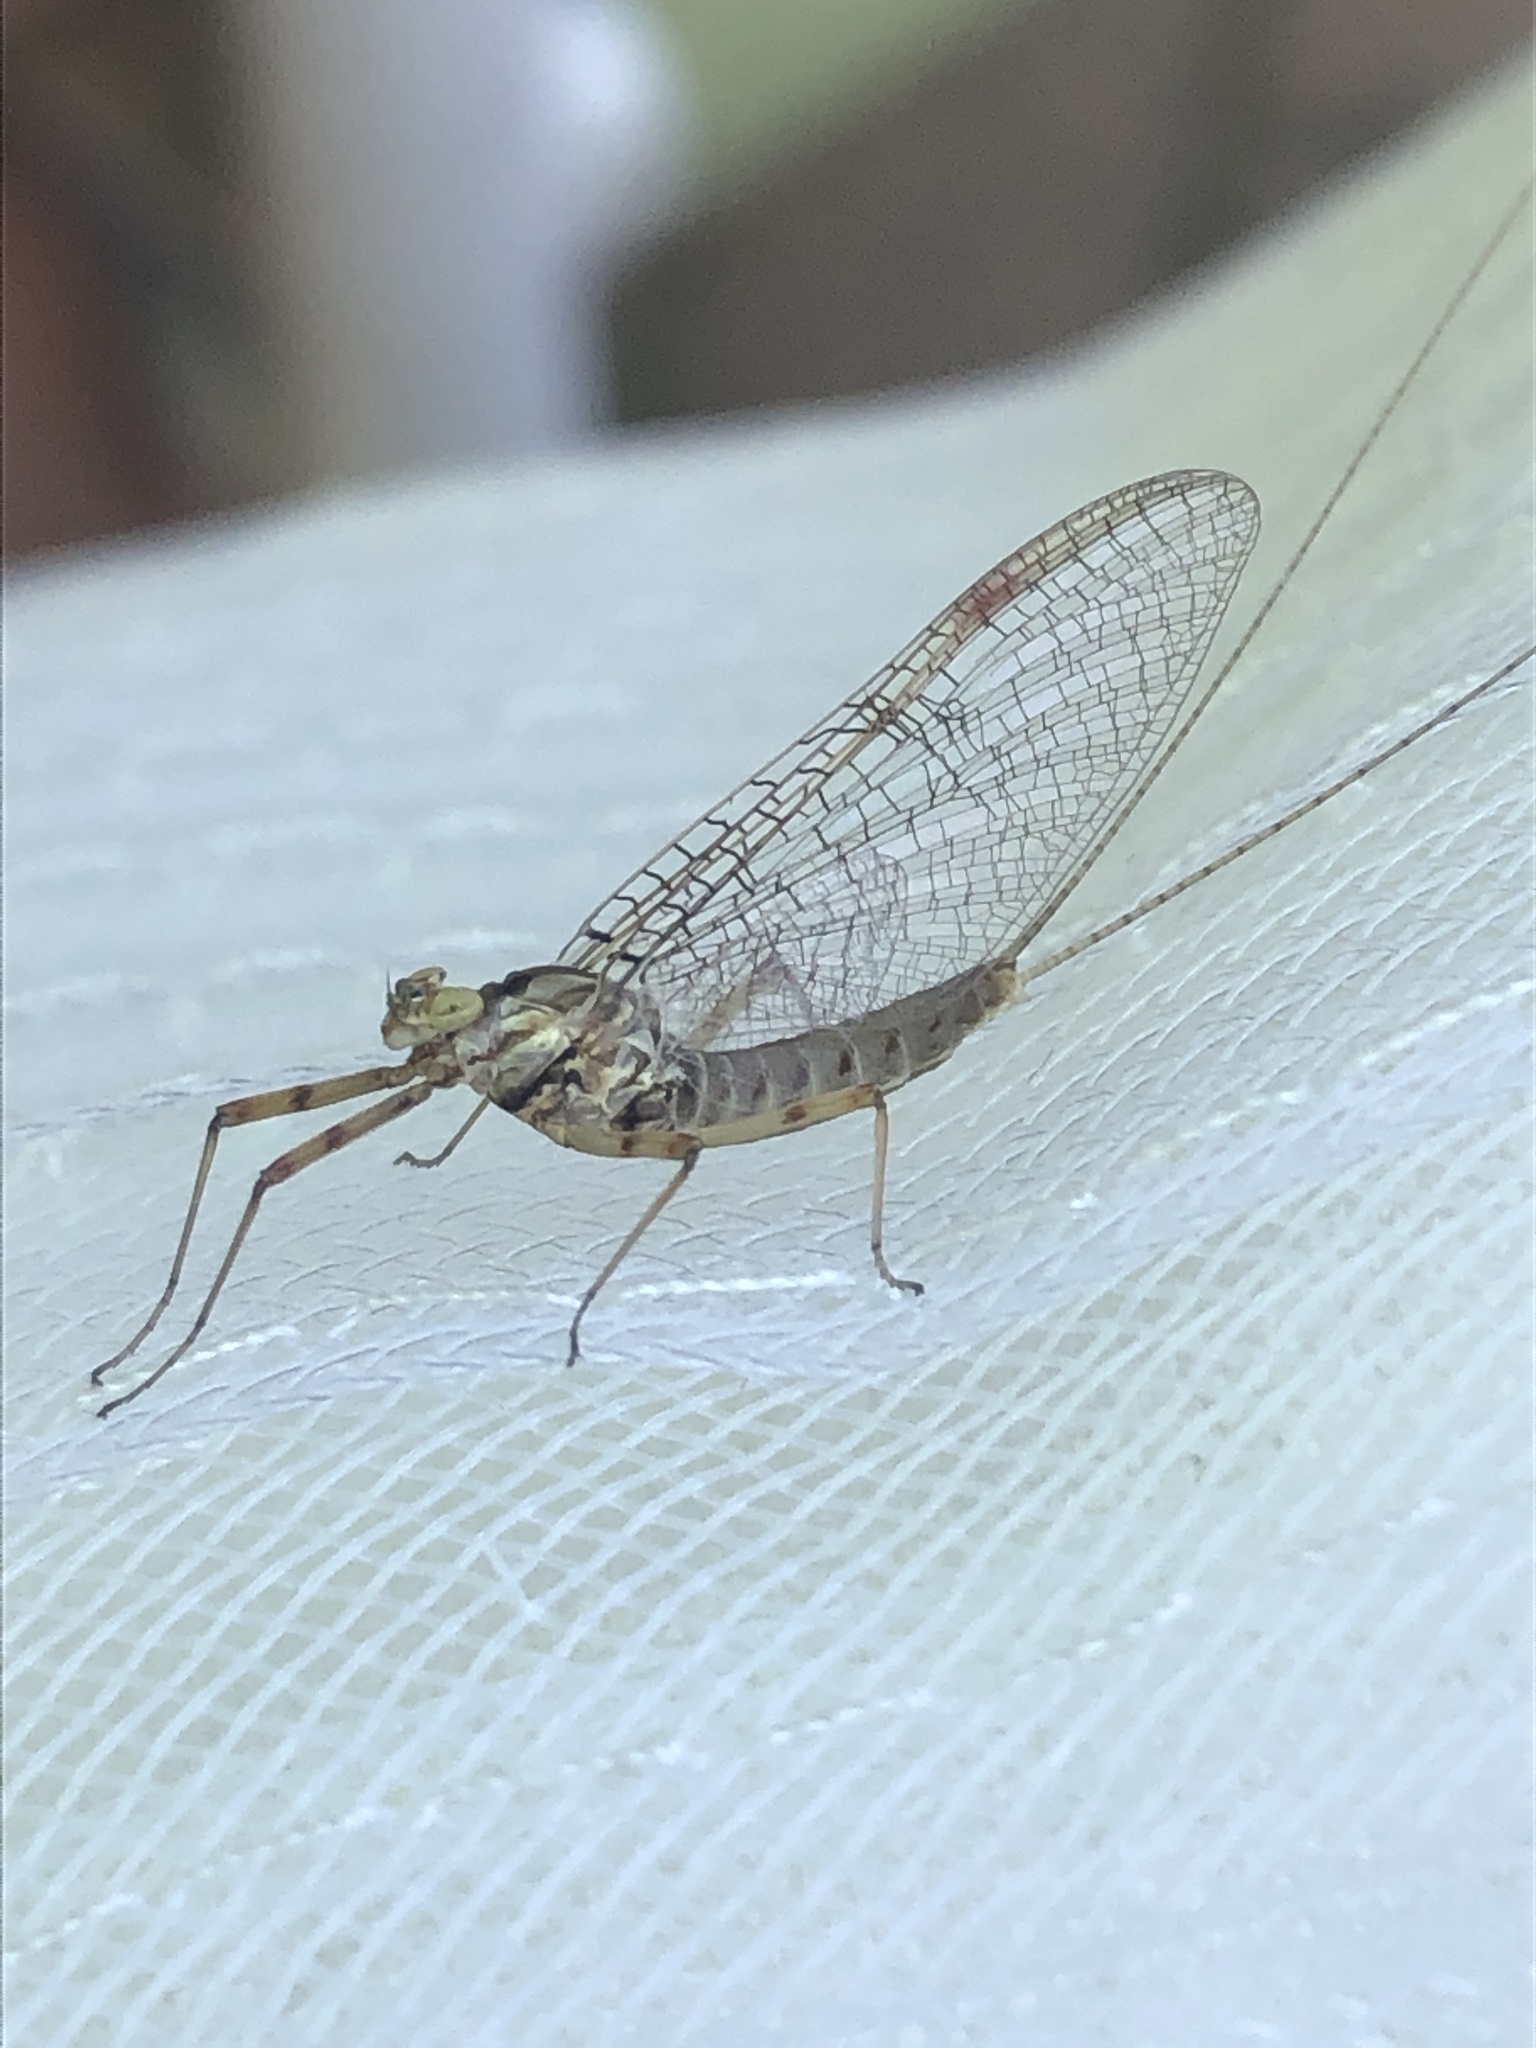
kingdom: Animalia
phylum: Arthropoda
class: Insecta
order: Ephemeroptera
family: Heptageniidae
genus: Stenonema
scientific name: Stenonema femoratum
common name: Dark cahill
